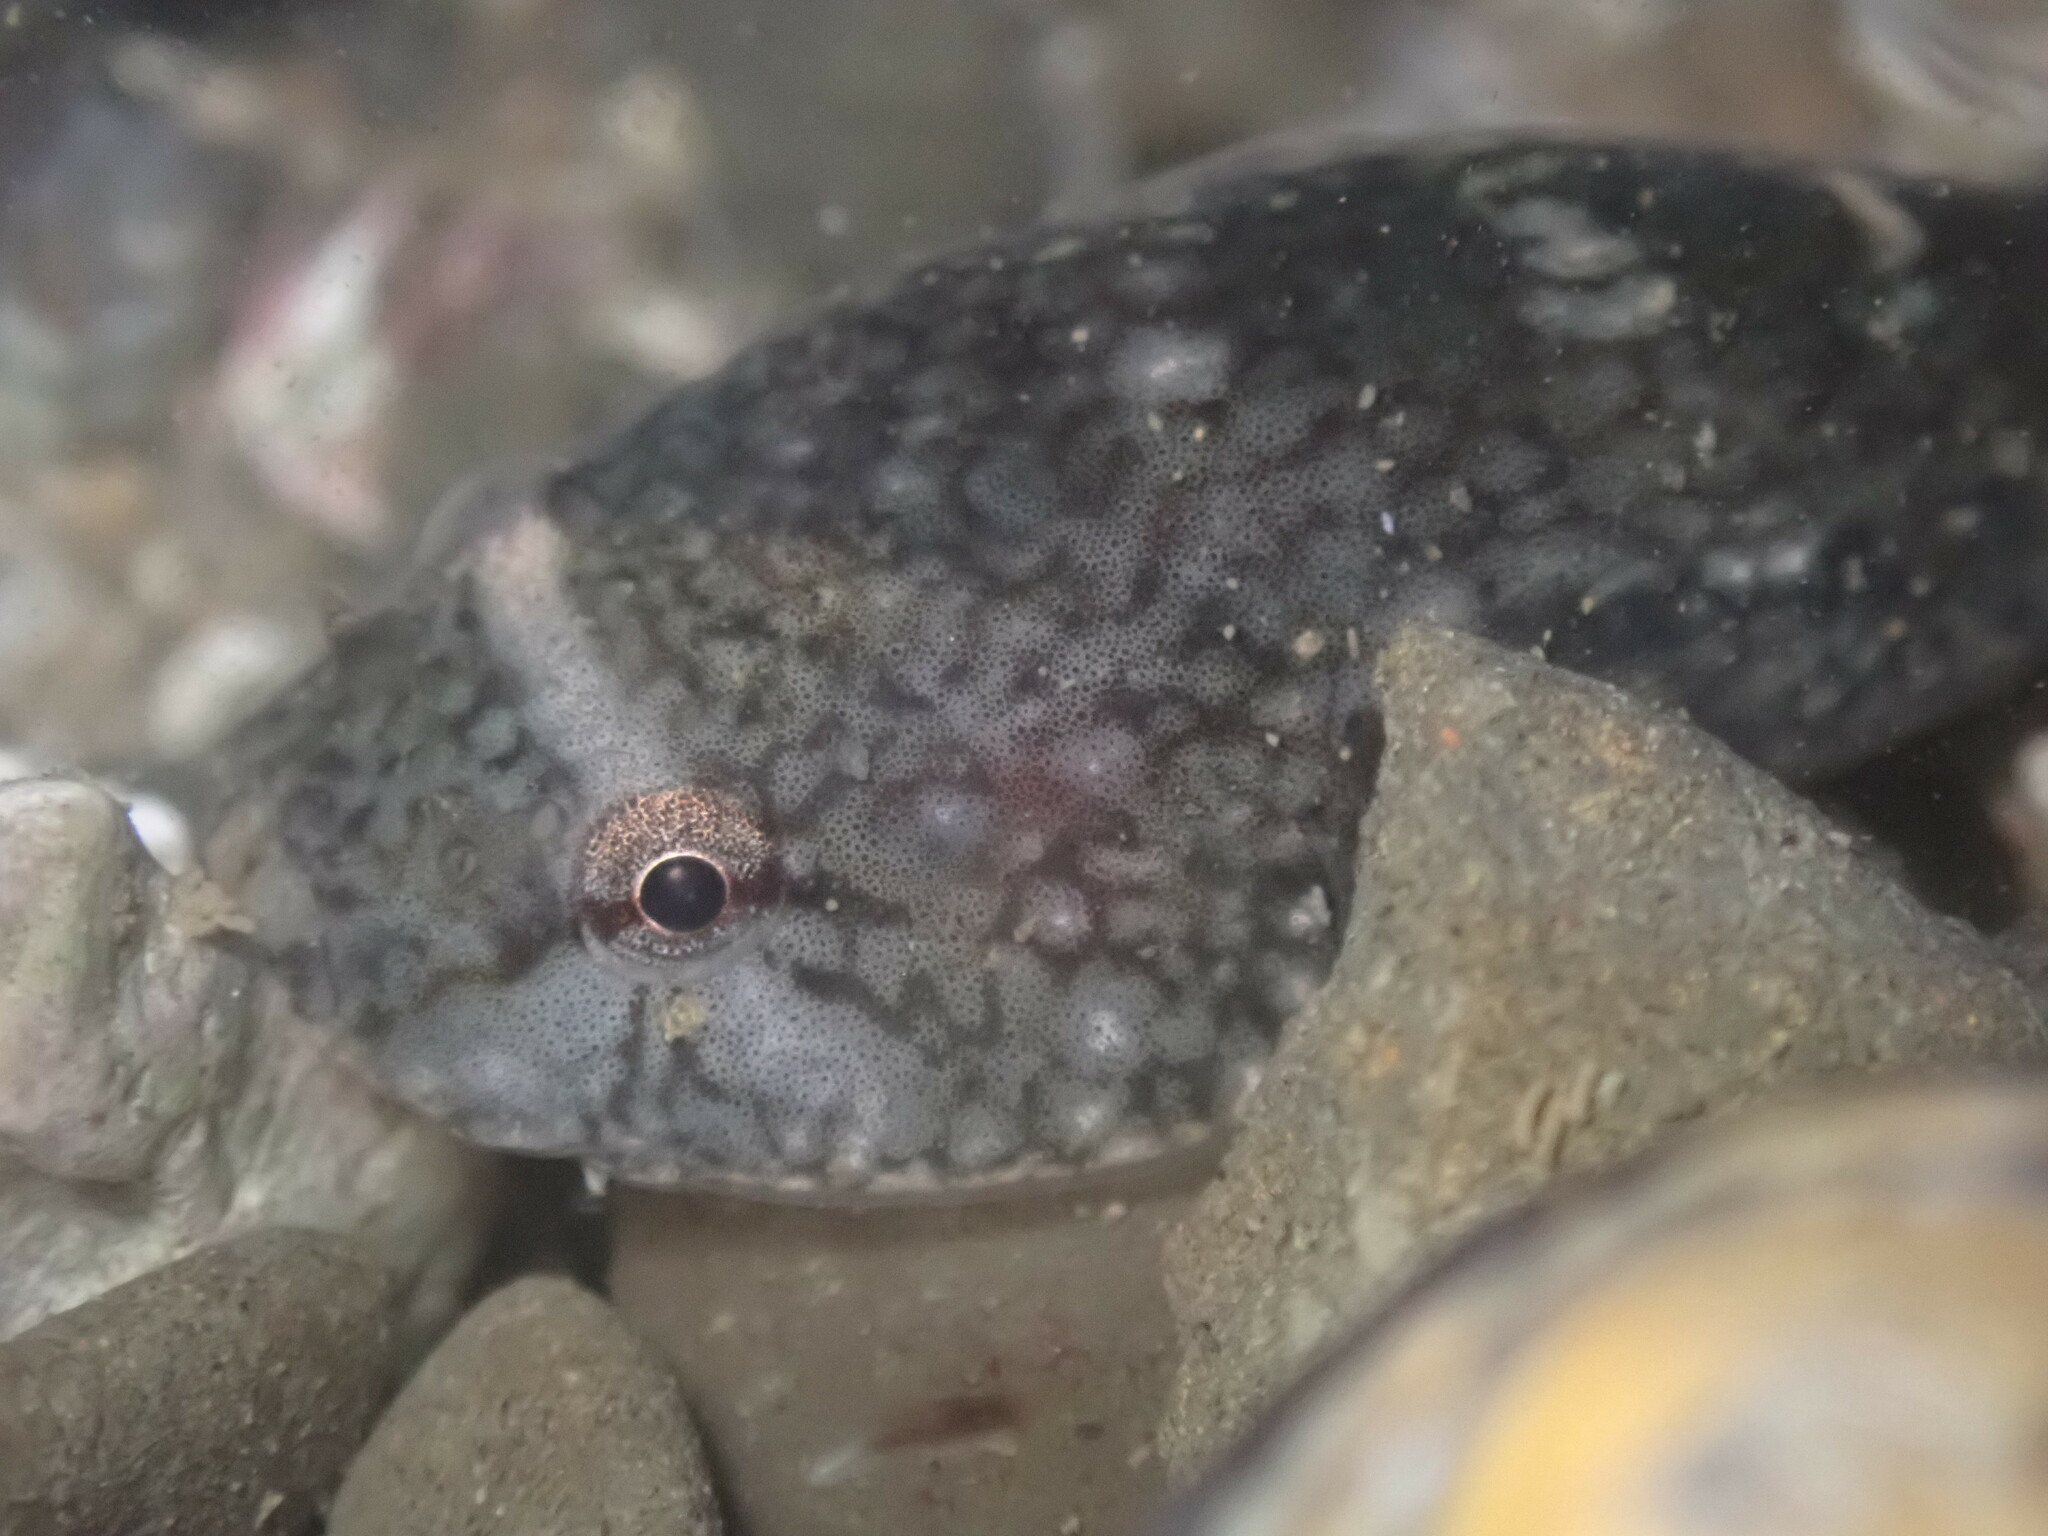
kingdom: Animalia
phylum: Chordata
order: Gobiesociformes
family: Gobiesocidae
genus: Gobiesox
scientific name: Gobiesox maeandricus
